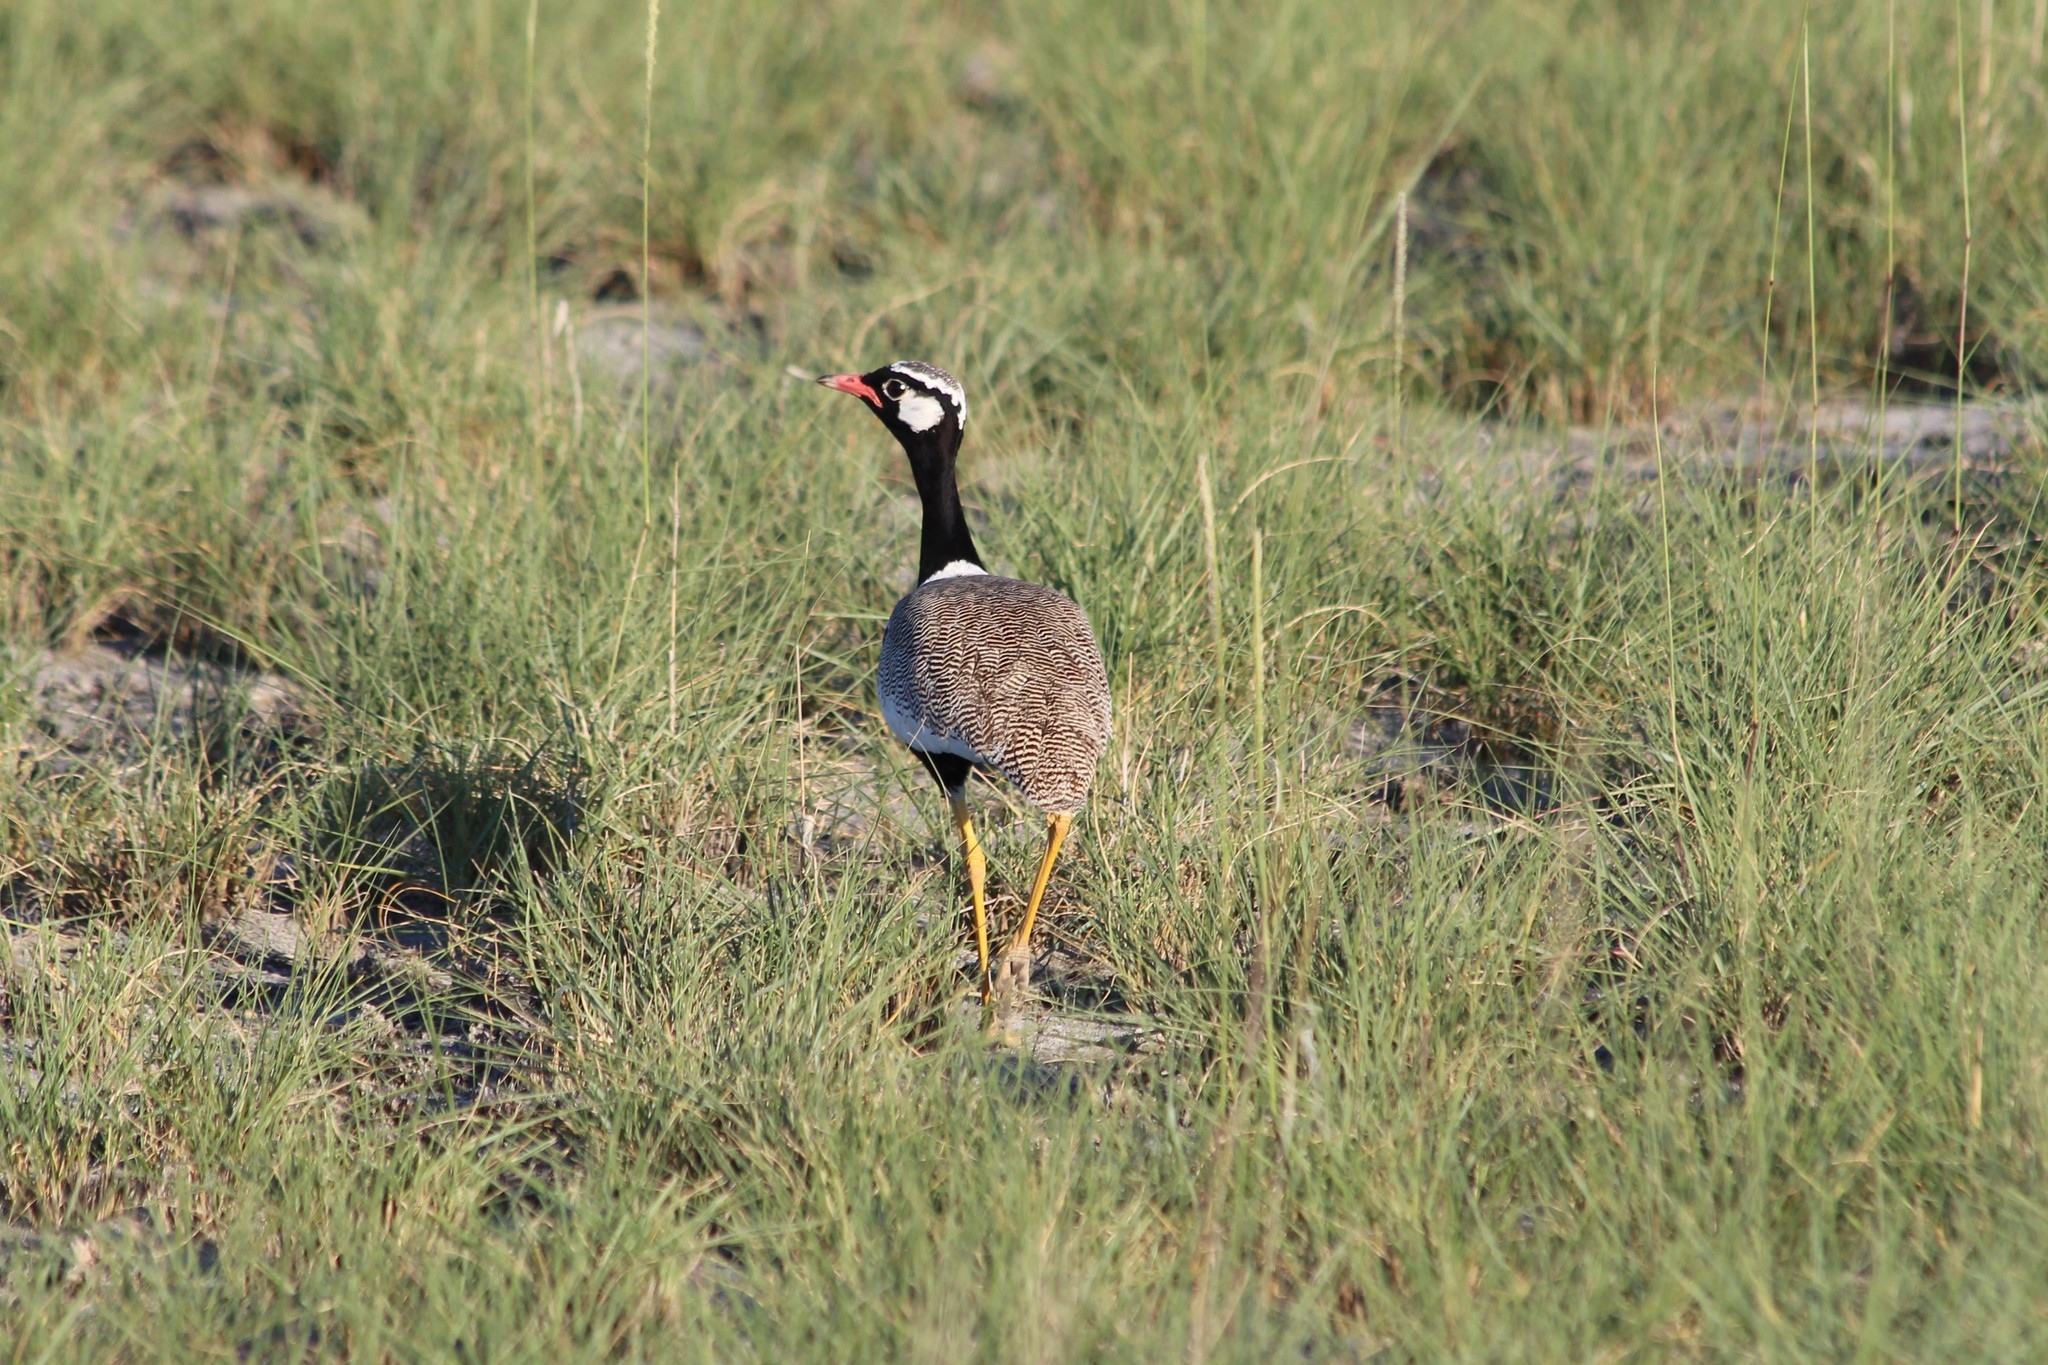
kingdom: Animalia
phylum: Chordata
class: Aves
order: Otidiformes
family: Otididae
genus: Afrotis
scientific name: Afrotis afraoides
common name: Northern black korhaan
